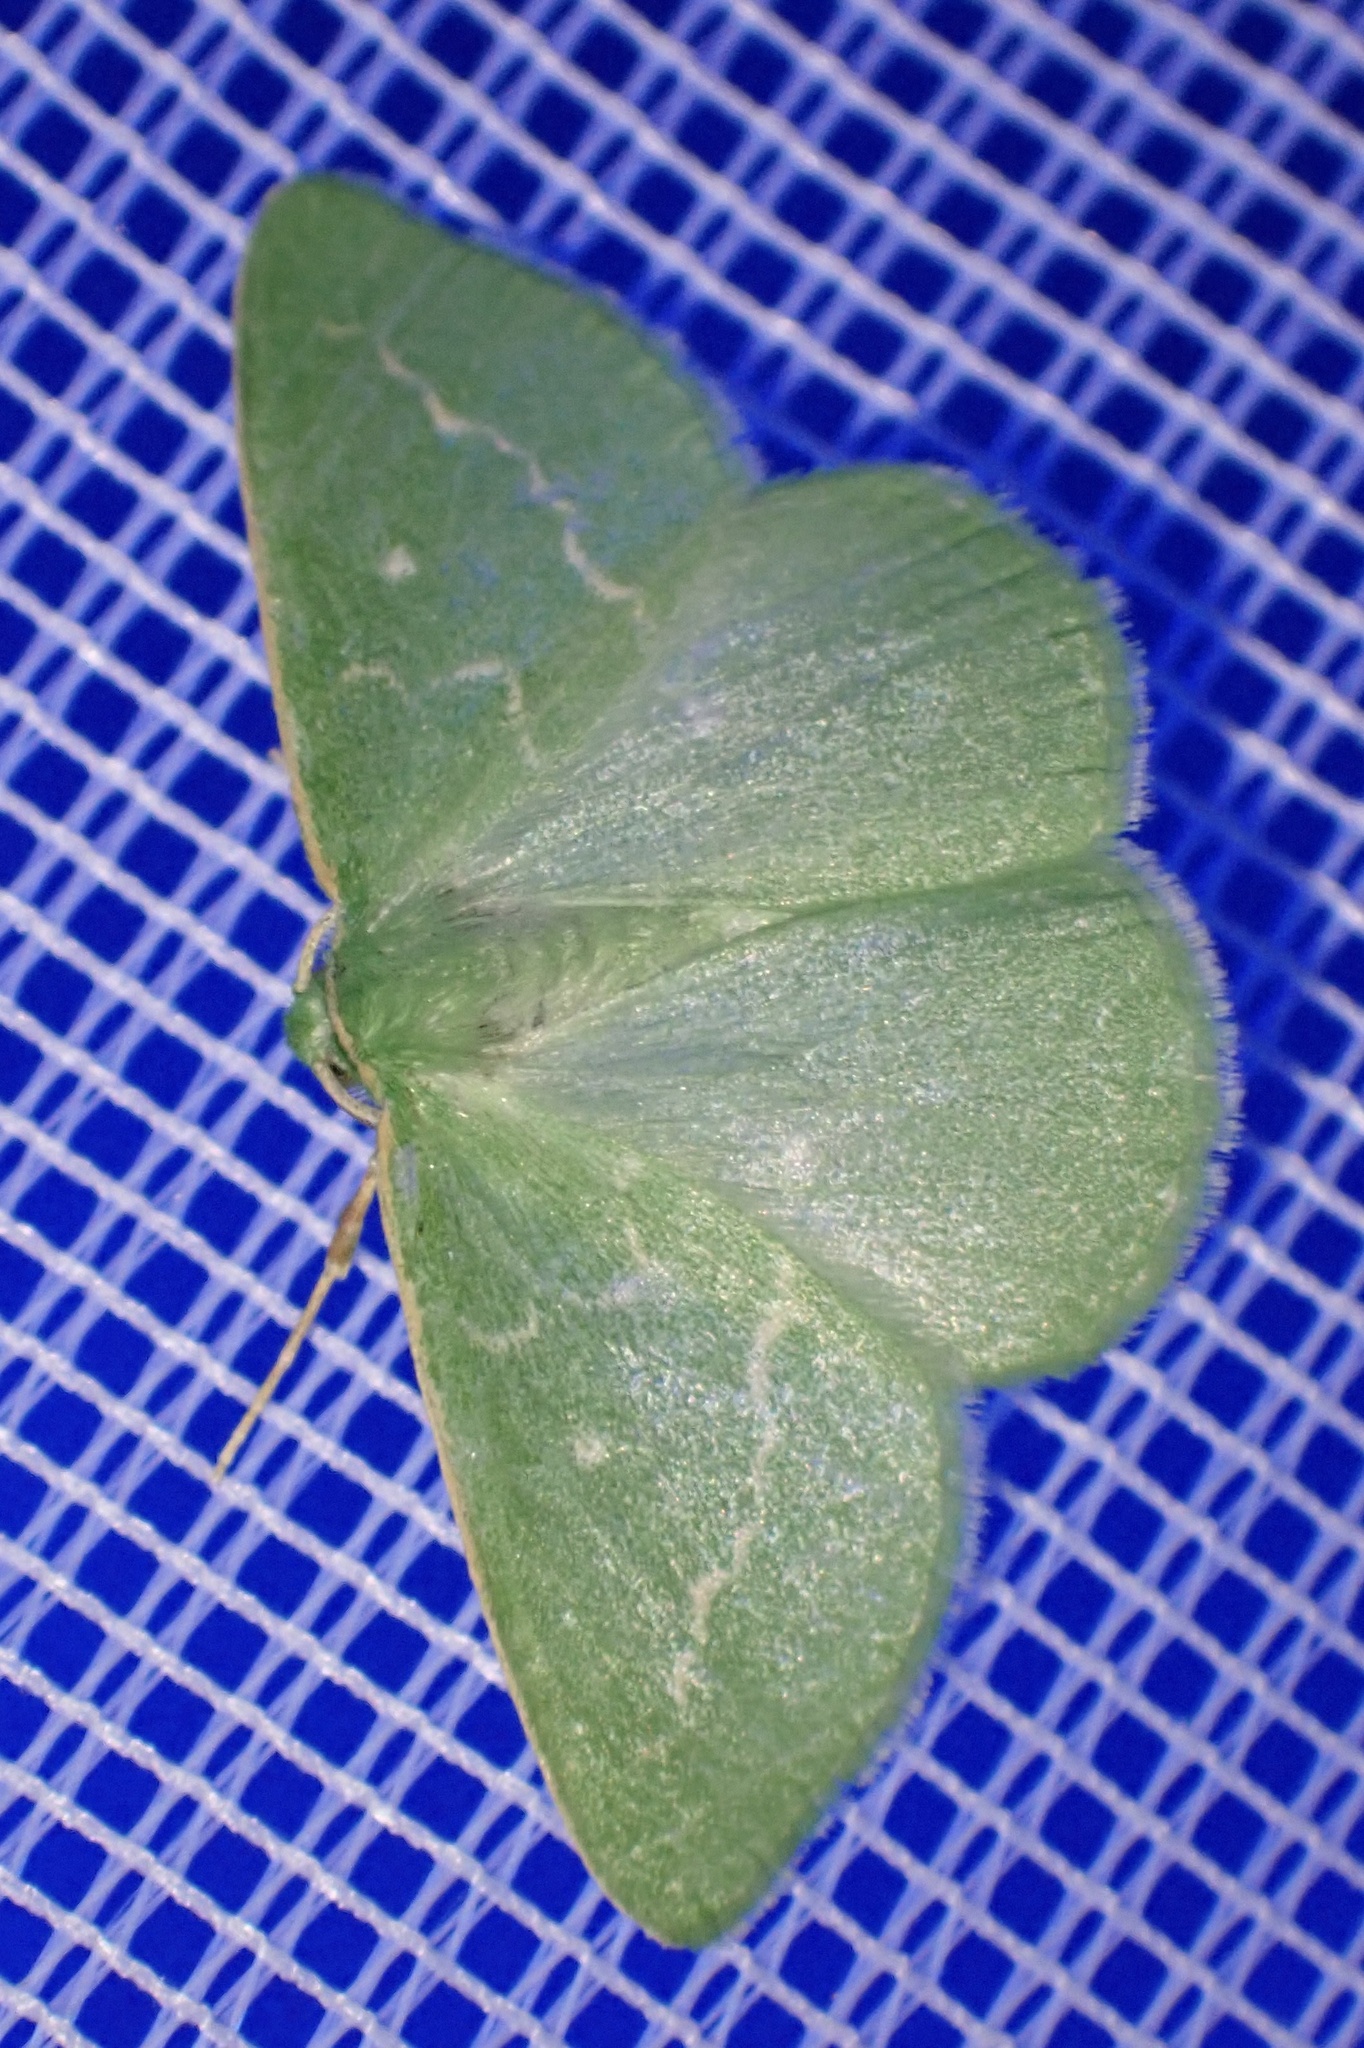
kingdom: Animalia
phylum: Arthropoda
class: Insecta
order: Lepidoptera
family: Geometridae
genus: Thetidia
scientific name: Thetidia smaragdaria
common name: Essex emerald
